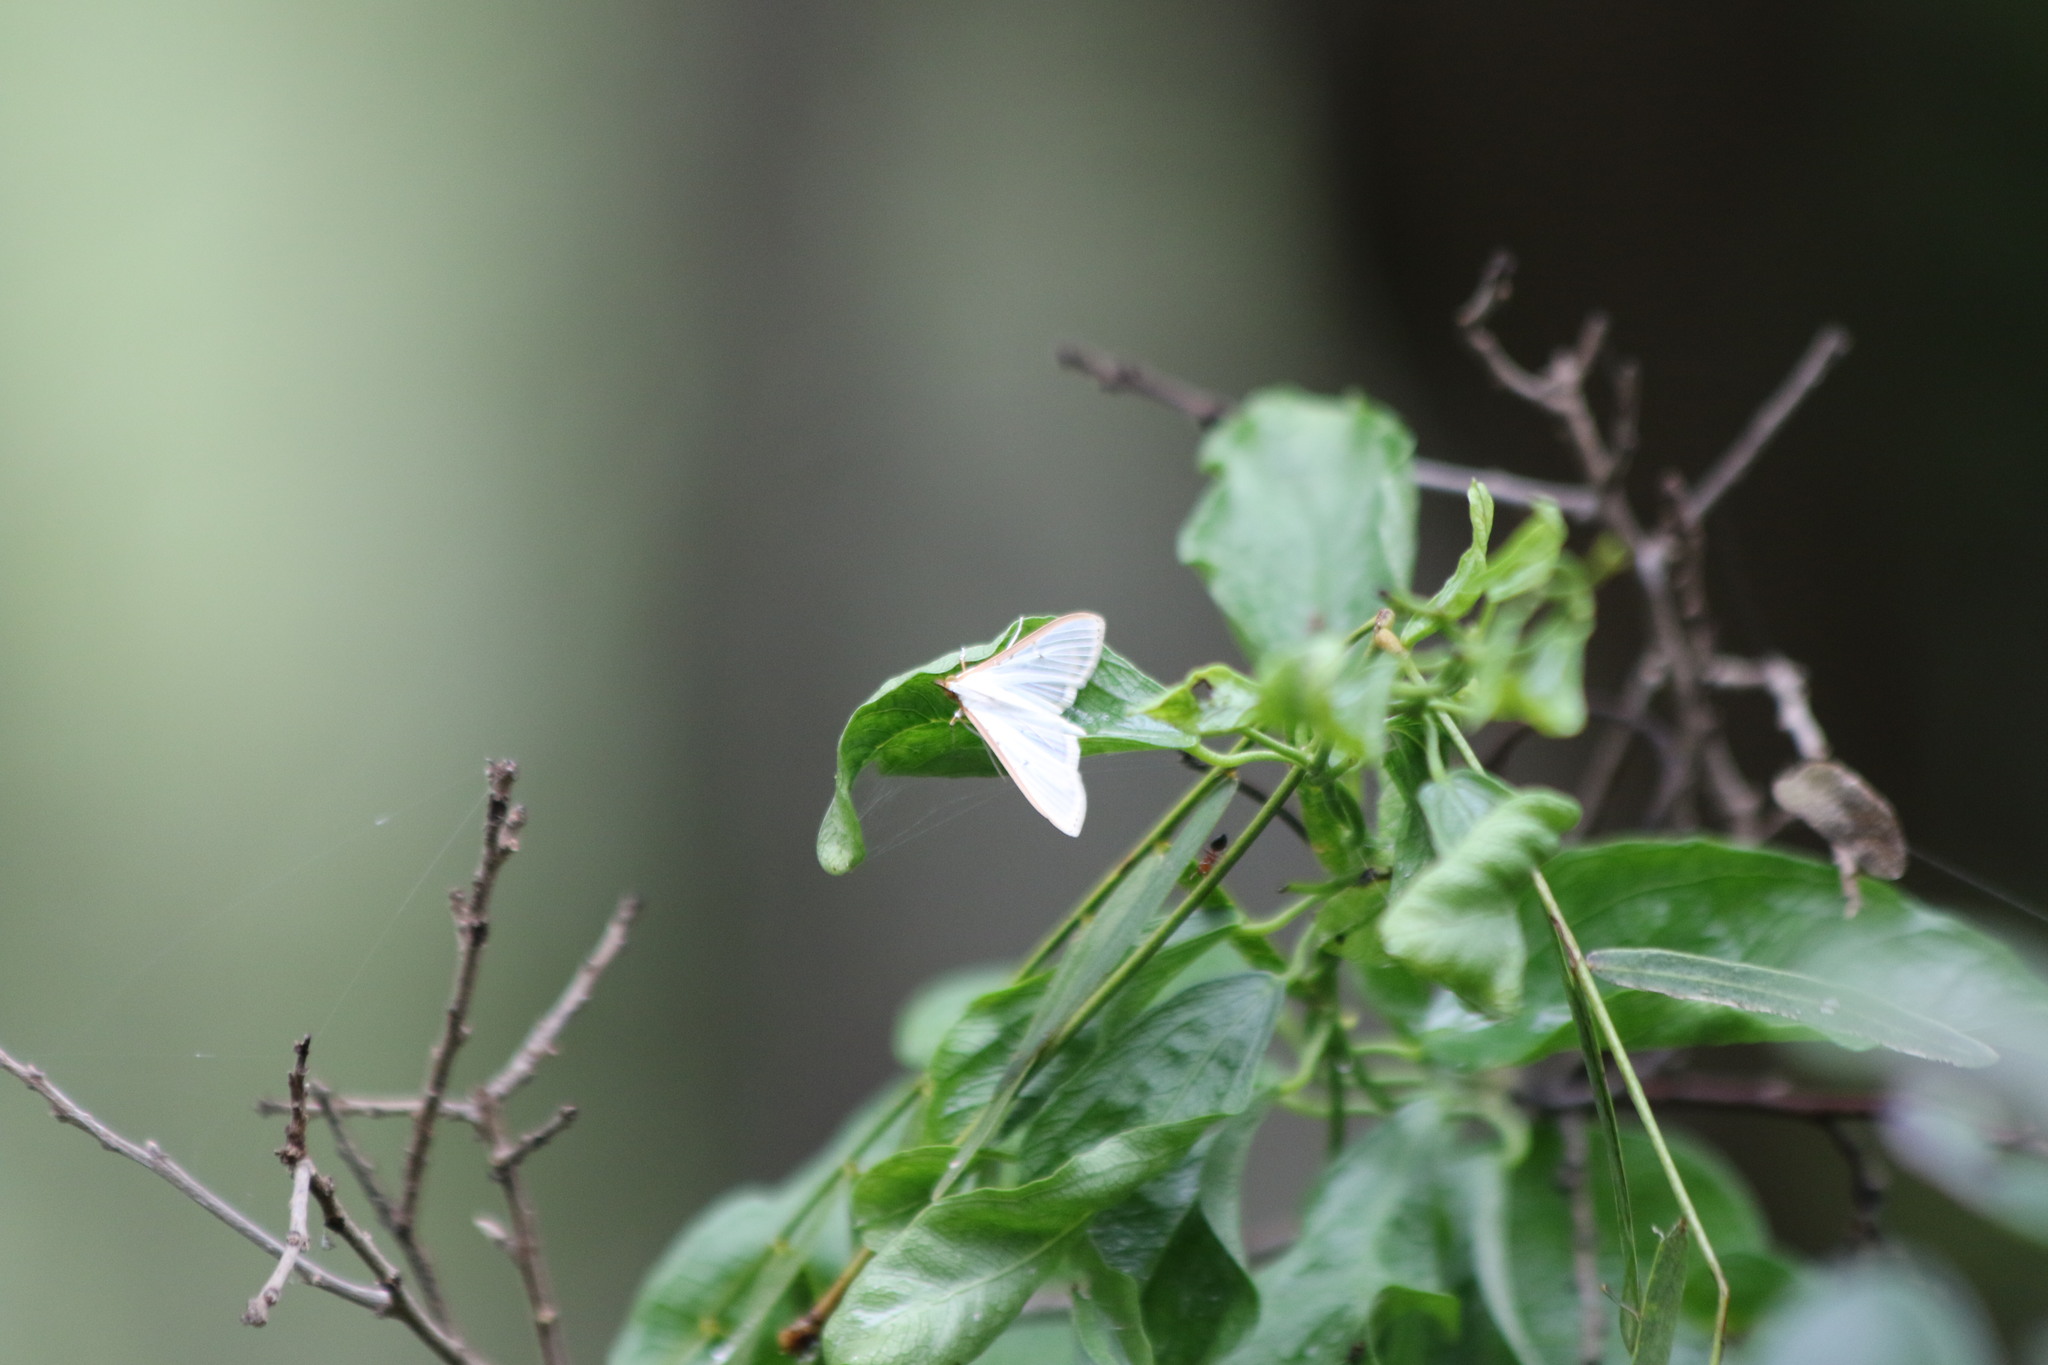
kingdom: Animalia
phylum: Arthropoda
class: Insecta
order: Lepidoptera
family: Crambidae
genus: Palpita
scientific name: Palpita quadristigmalis
